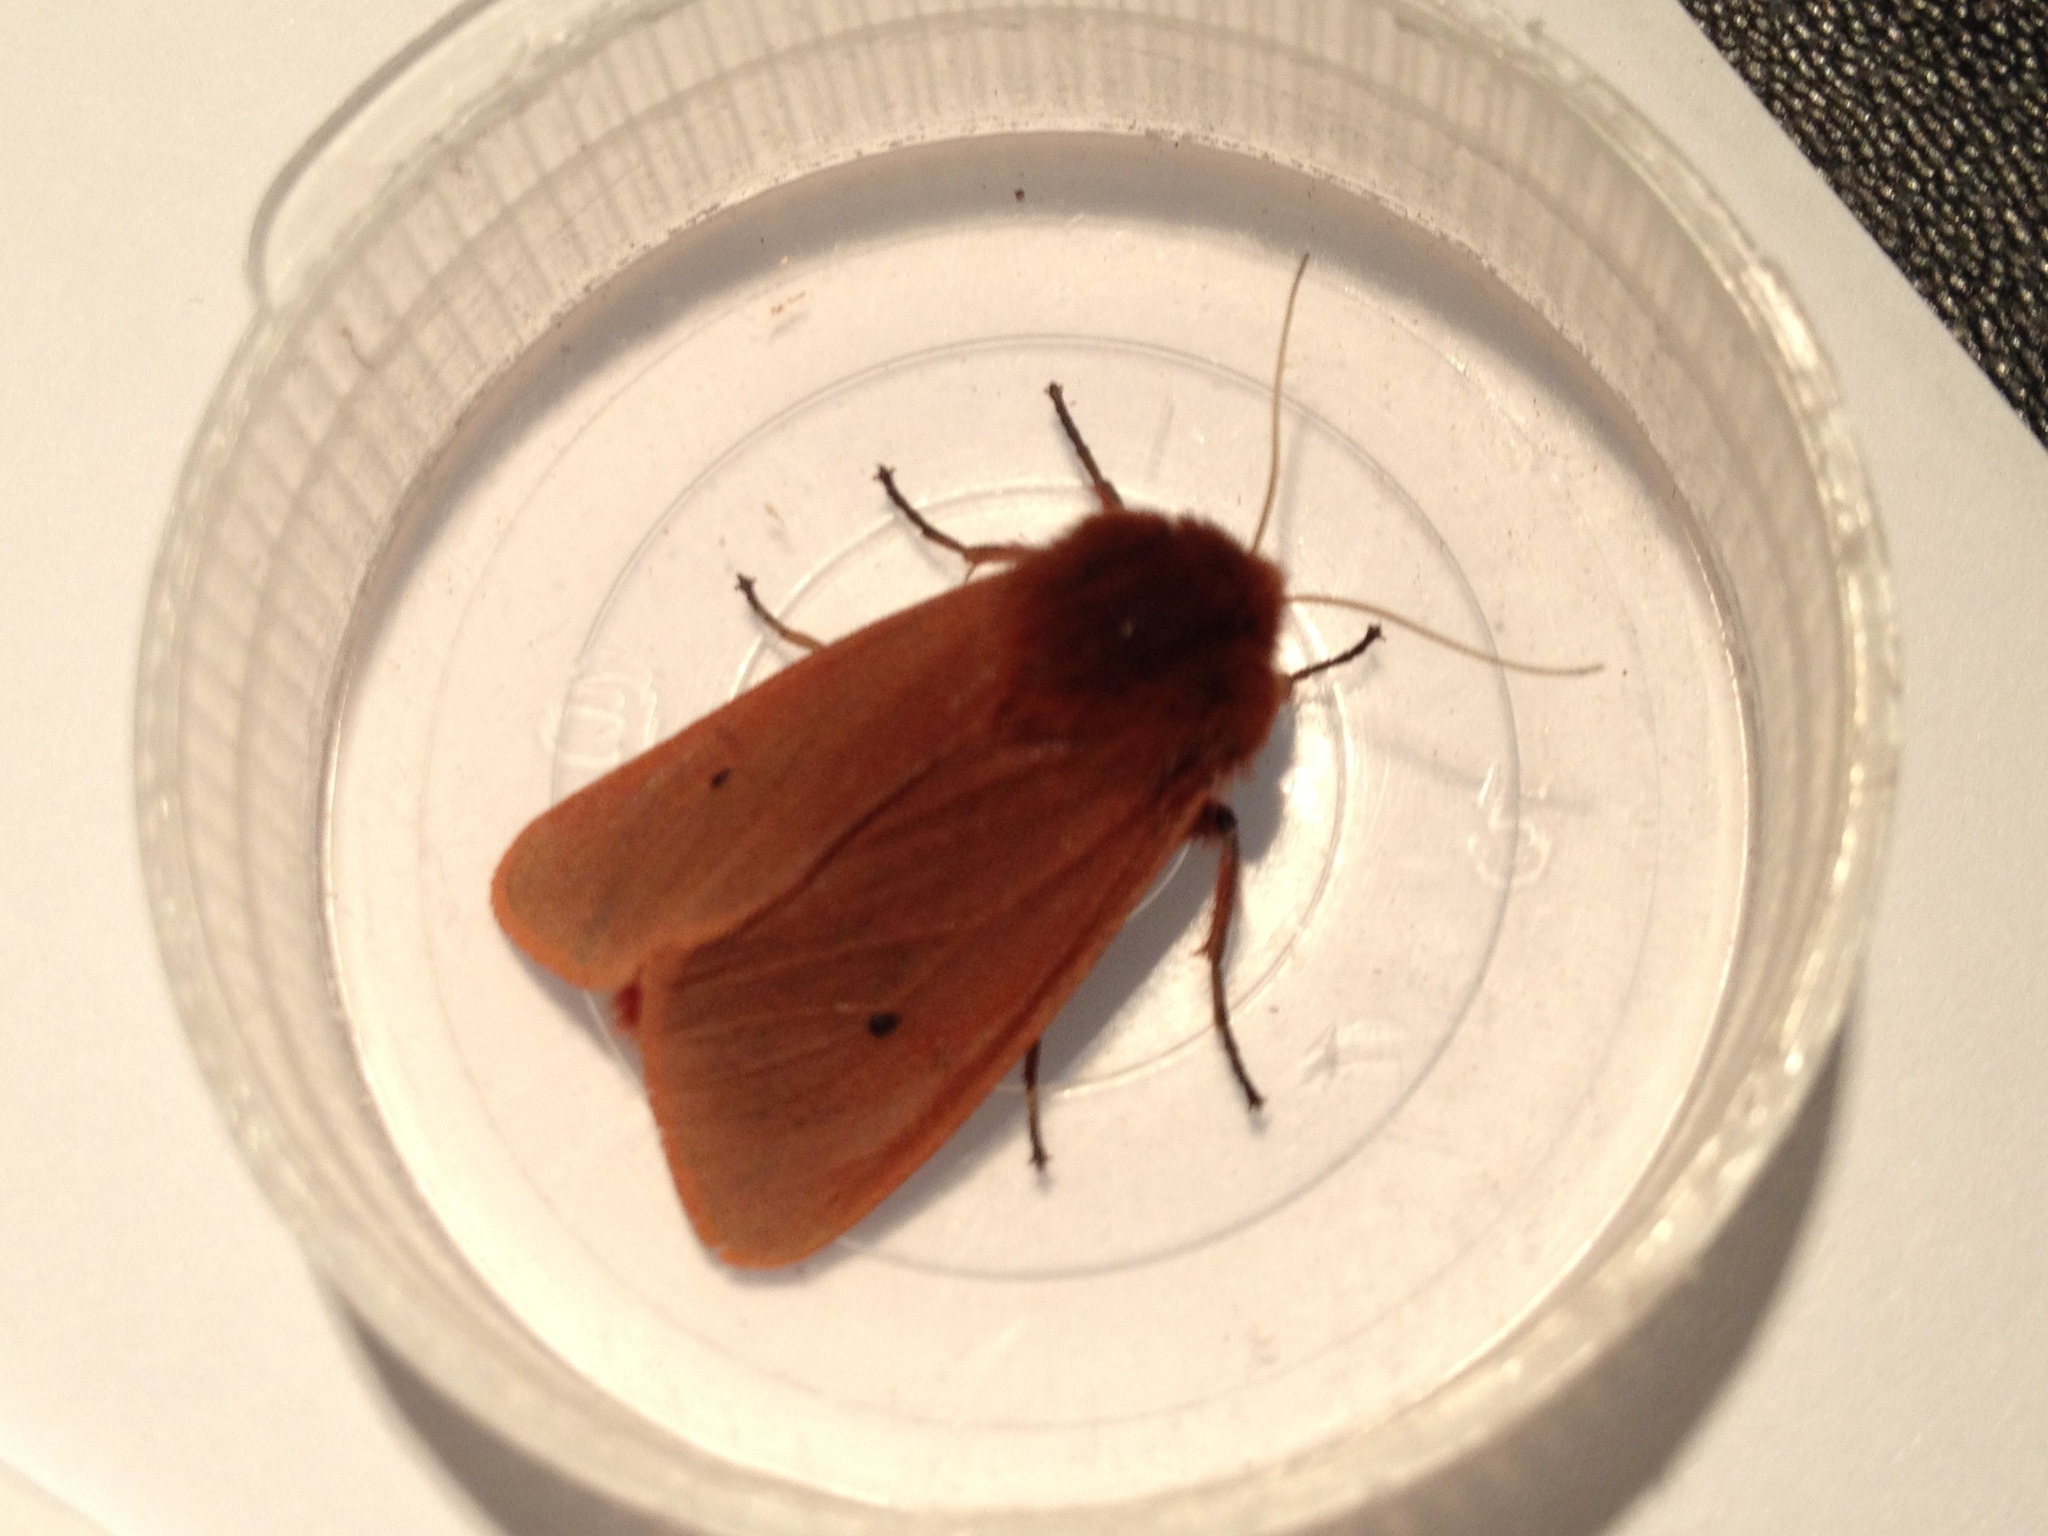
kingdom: Animalia
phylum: Arthropoda
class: Insecta
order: Lepidoptera
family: Erebidae
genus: Phragmatobia
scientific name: Phragmatobia fuliginosa
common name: Ruby tiger
